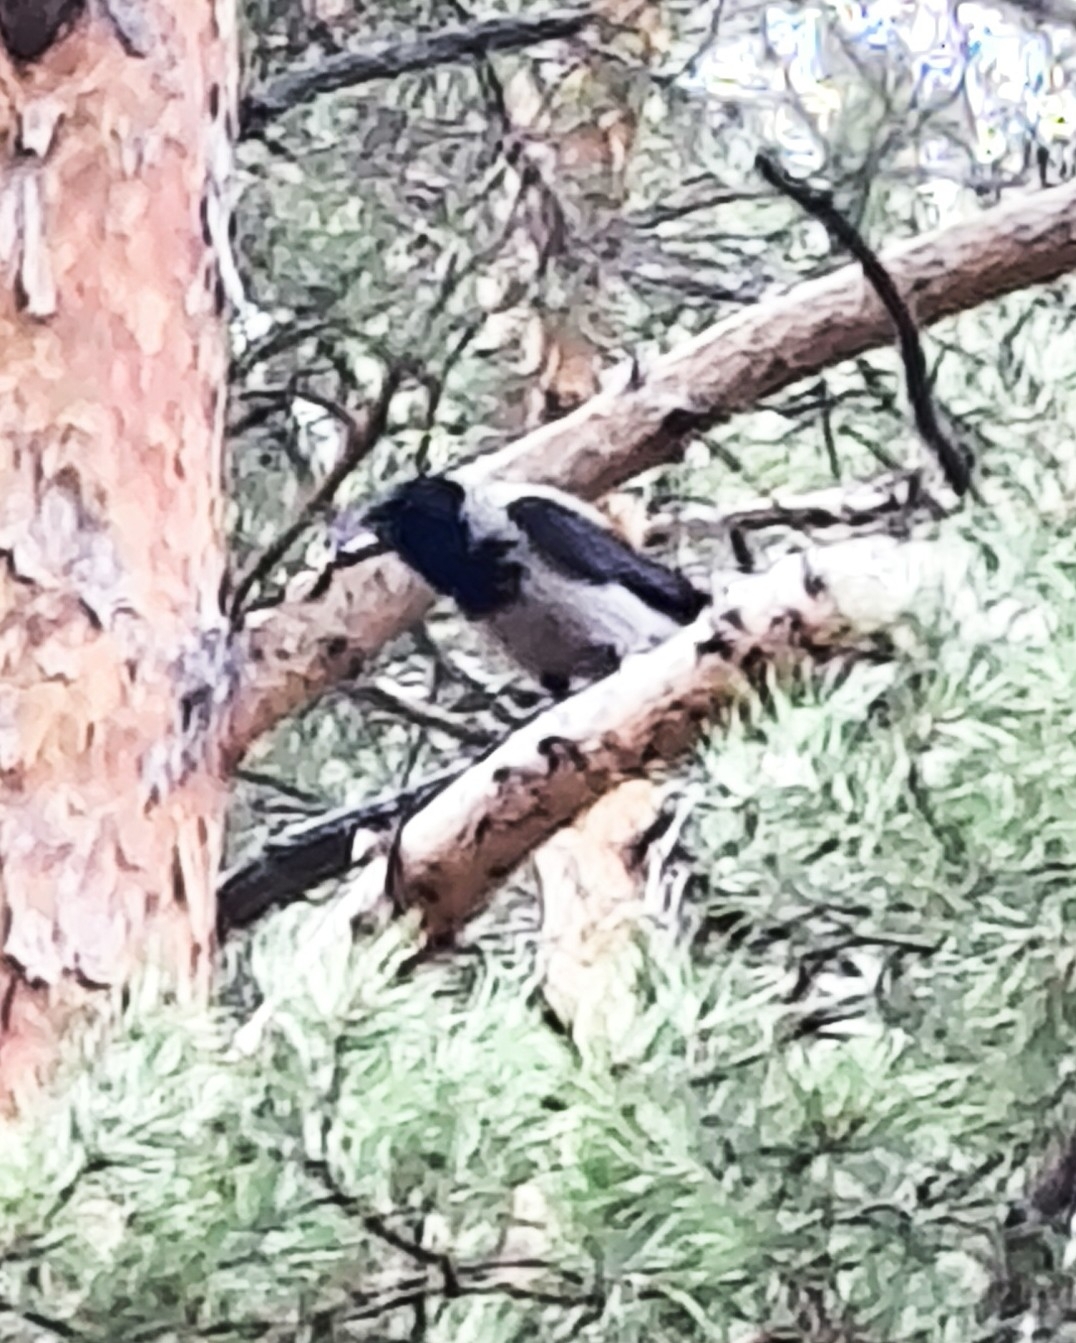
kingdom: Animalia
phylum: Chordata
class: Aves
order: Passeriformes
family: Corvidae
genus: Corvus
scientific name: Corvus cornix
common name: Hooded crow
